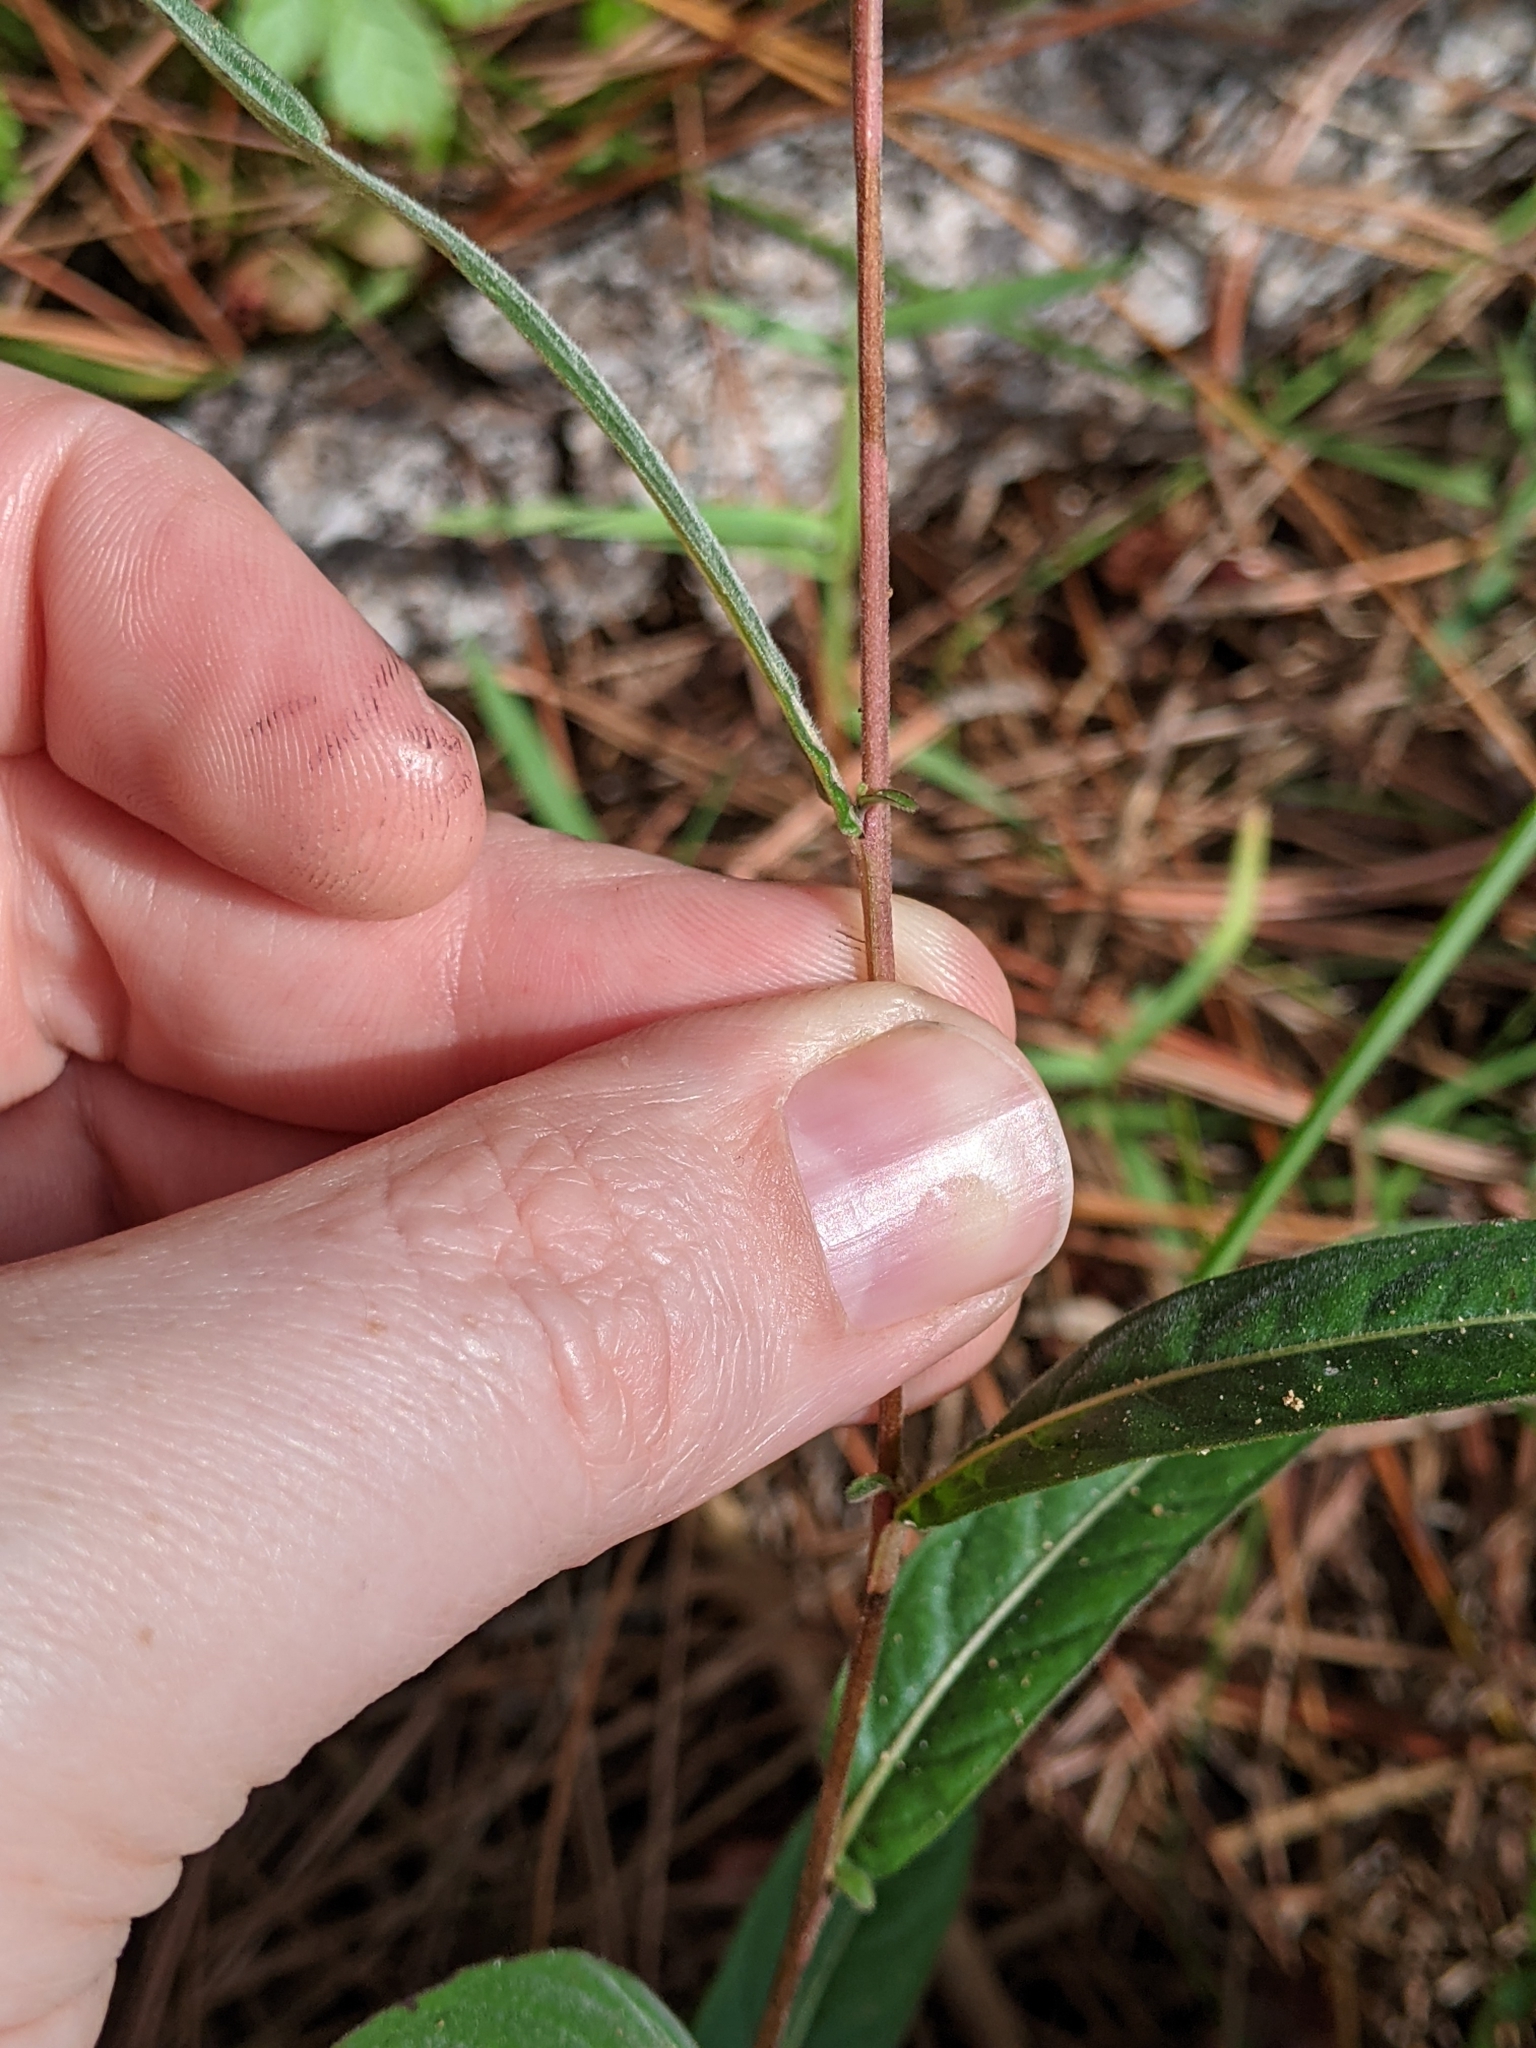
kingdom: Plantae
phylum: Tracheophyta
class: Magnoliopsida
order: Myrtales
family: Onagraceae
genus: Ludwigia
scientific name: Ludwigia maritima
